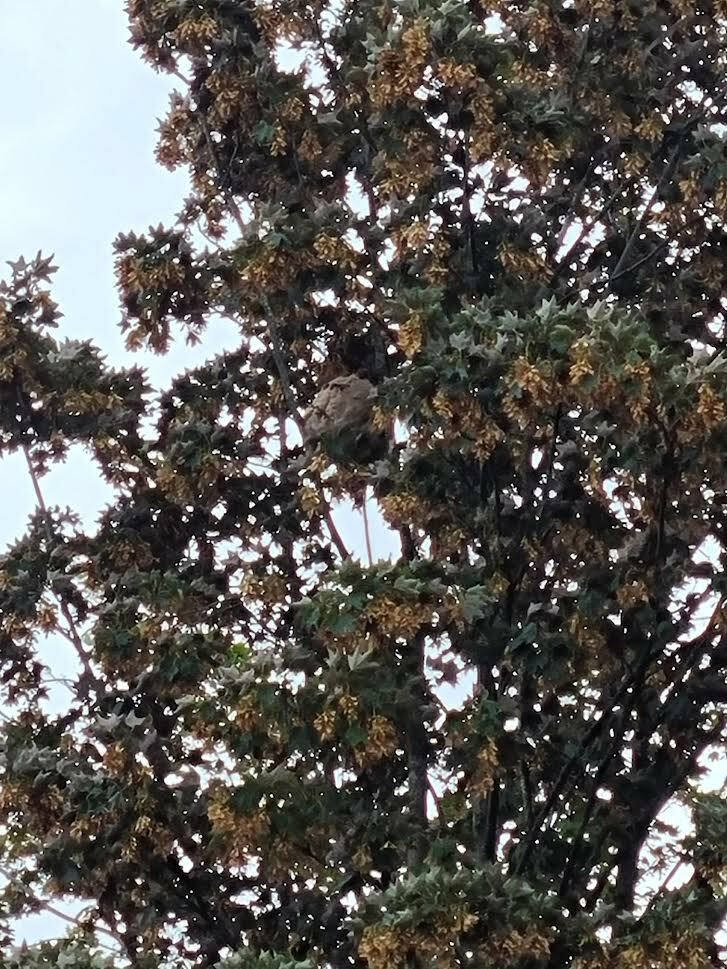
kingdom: Animalia
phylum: Arthropoda
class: Insecta
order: Hymenoptera
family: Vespidae
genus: Vespa
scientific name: Vespa velutina
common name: Asian hornet
